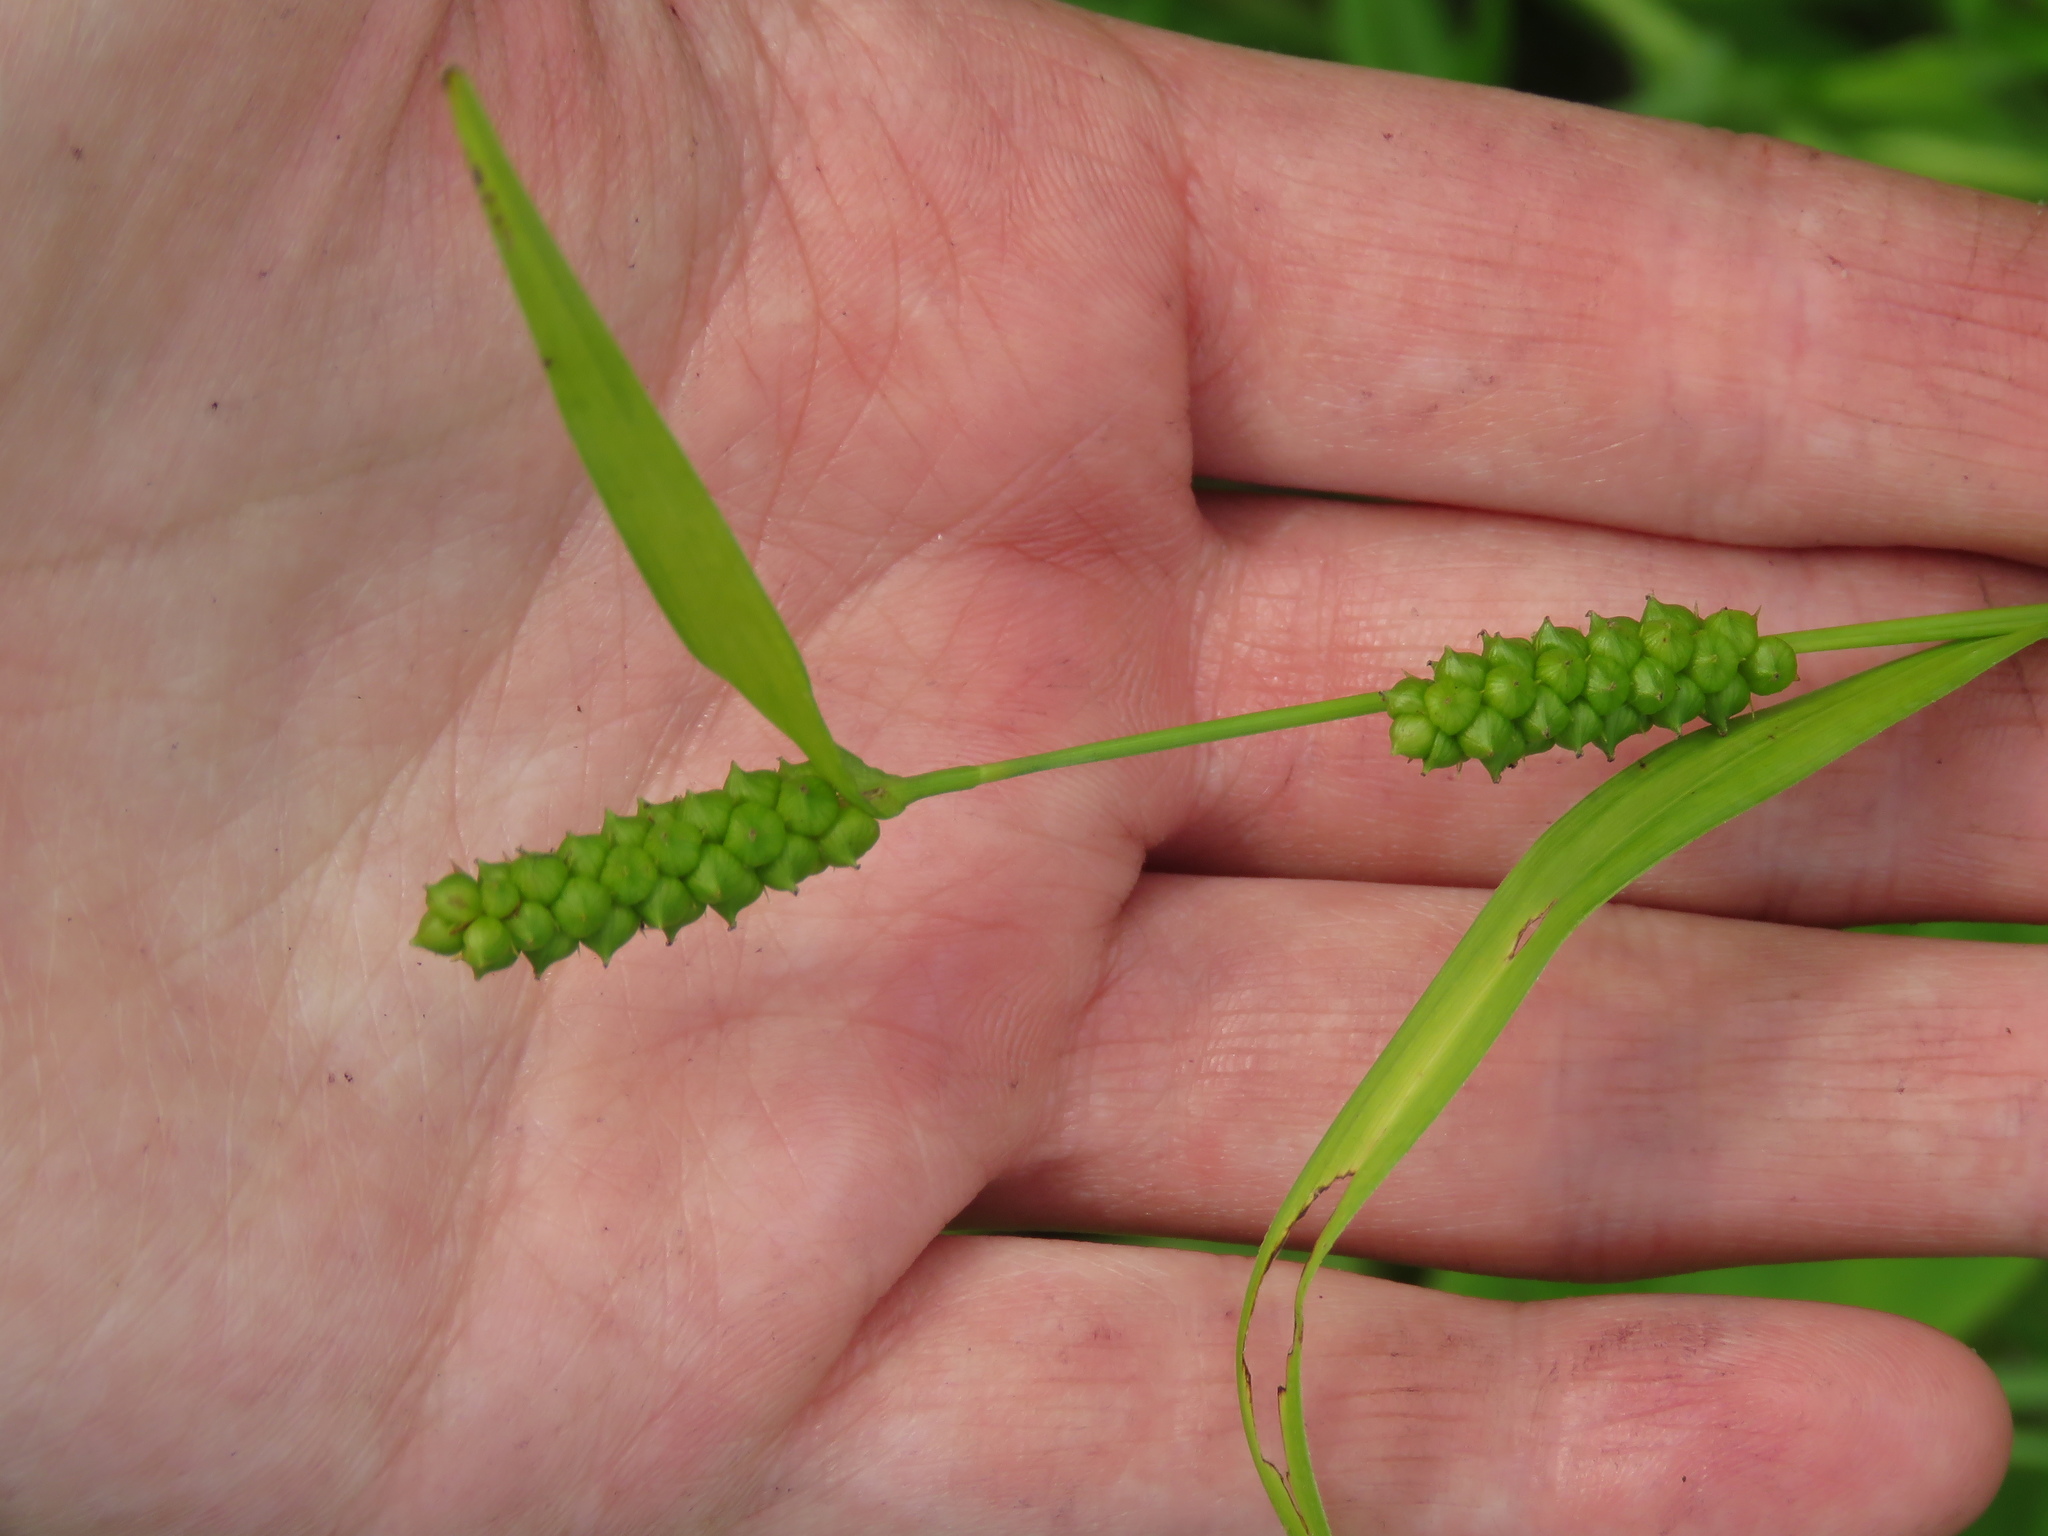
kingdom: Plantae
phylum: Tracheophyta
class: Liliopsida
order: Poales
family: Cyperaceae
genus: Carex
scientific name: Carex granularis
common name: Granular sedge
